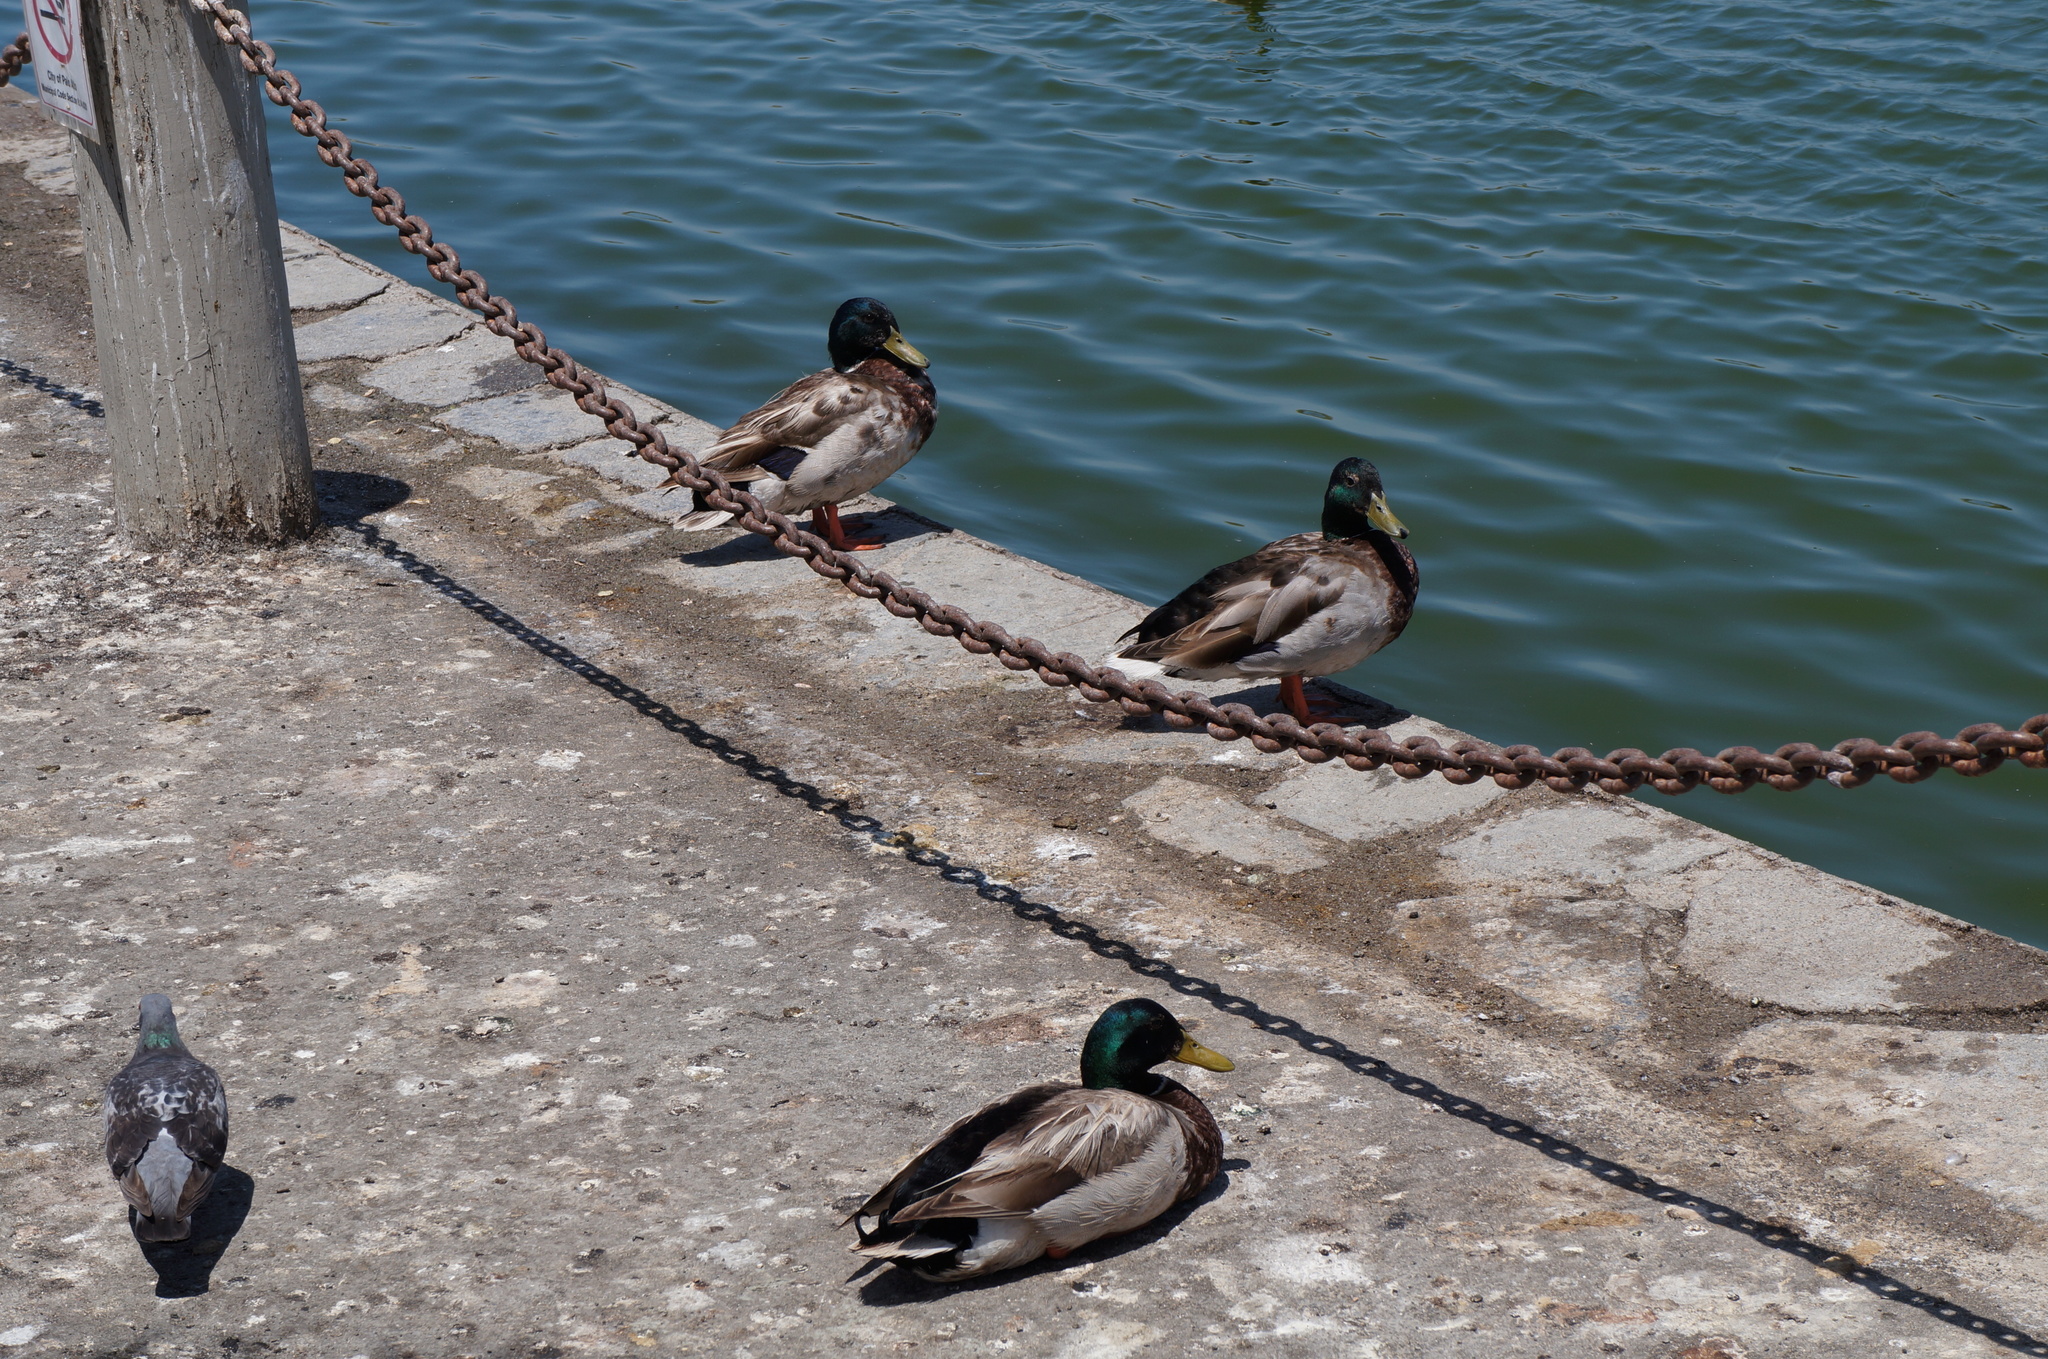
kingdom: Animalia
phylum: Chordata
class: Aves
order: Anseriformes
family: Anatidae
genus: Anas
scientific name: Anas platyrhynchos
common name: Mallard
